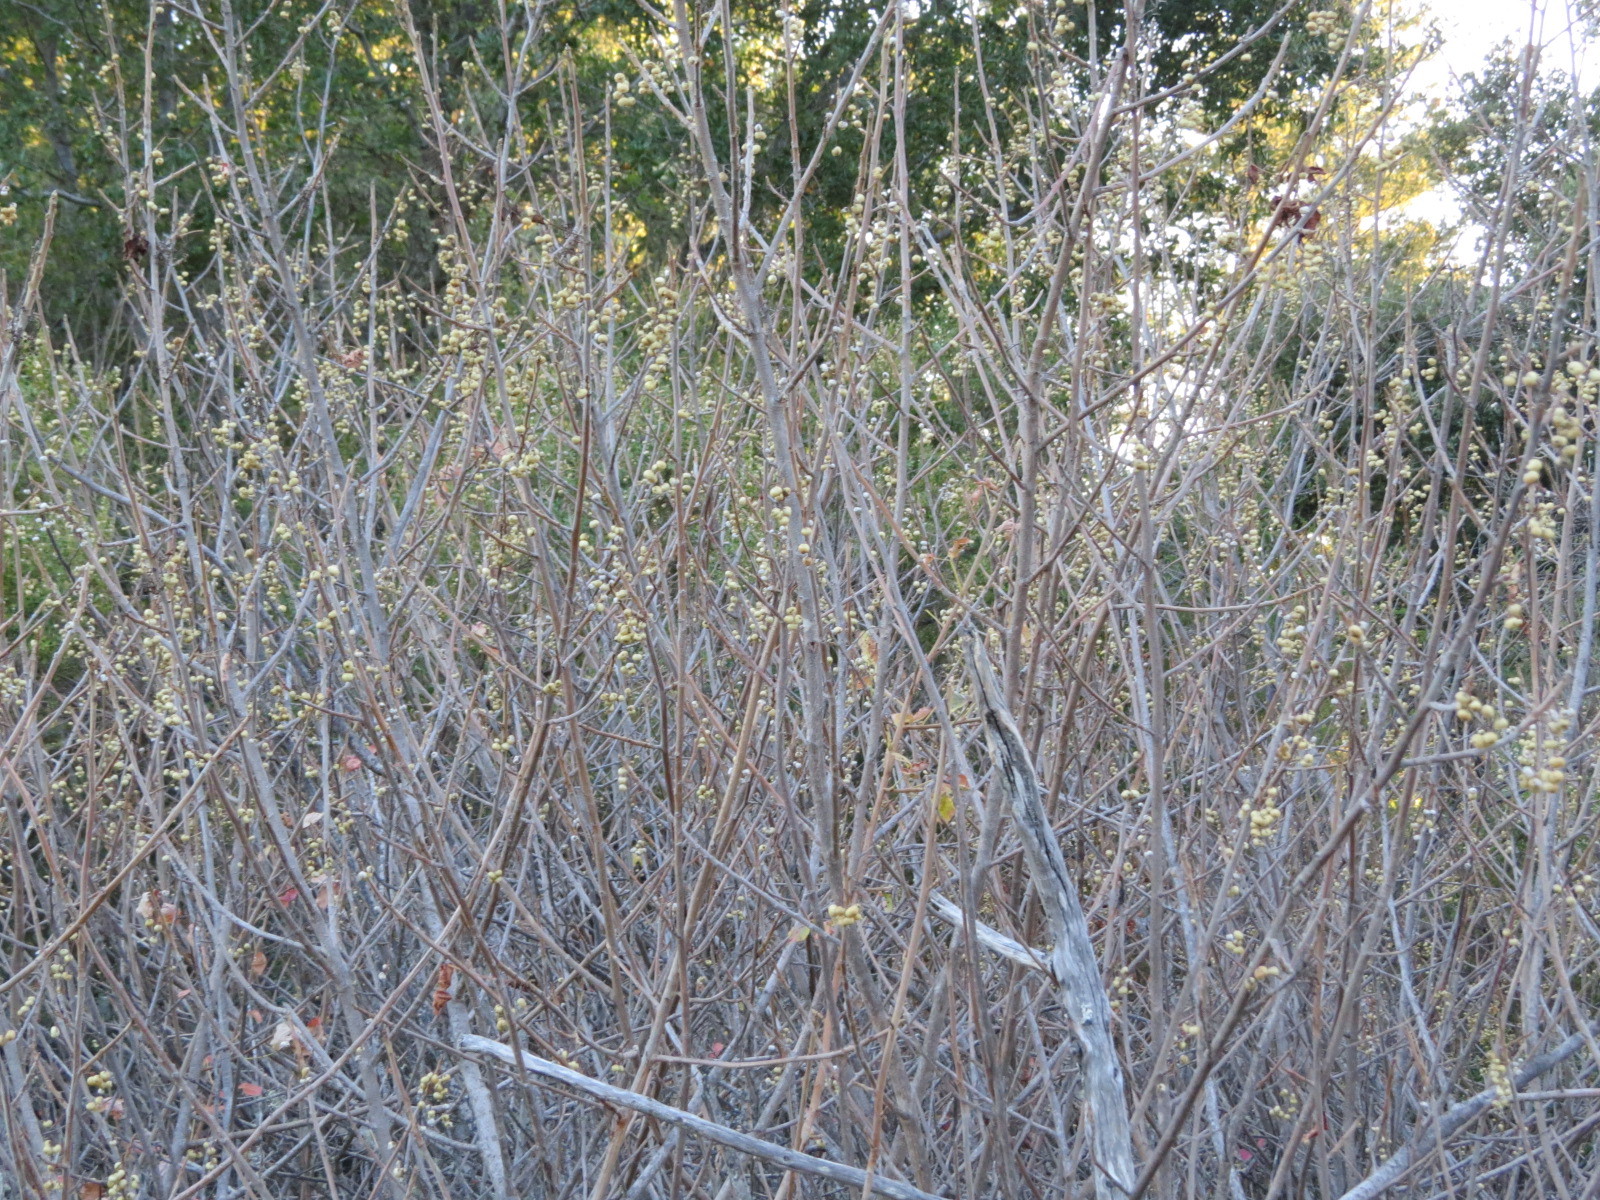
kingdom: Plantae
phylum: Tracheophyta
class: Magnoliopsida
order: Sapindales
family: Anacardiaceae
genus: Toxicodendron
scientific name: Toxicodendron diversilobum
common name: Pacific poison-oak
